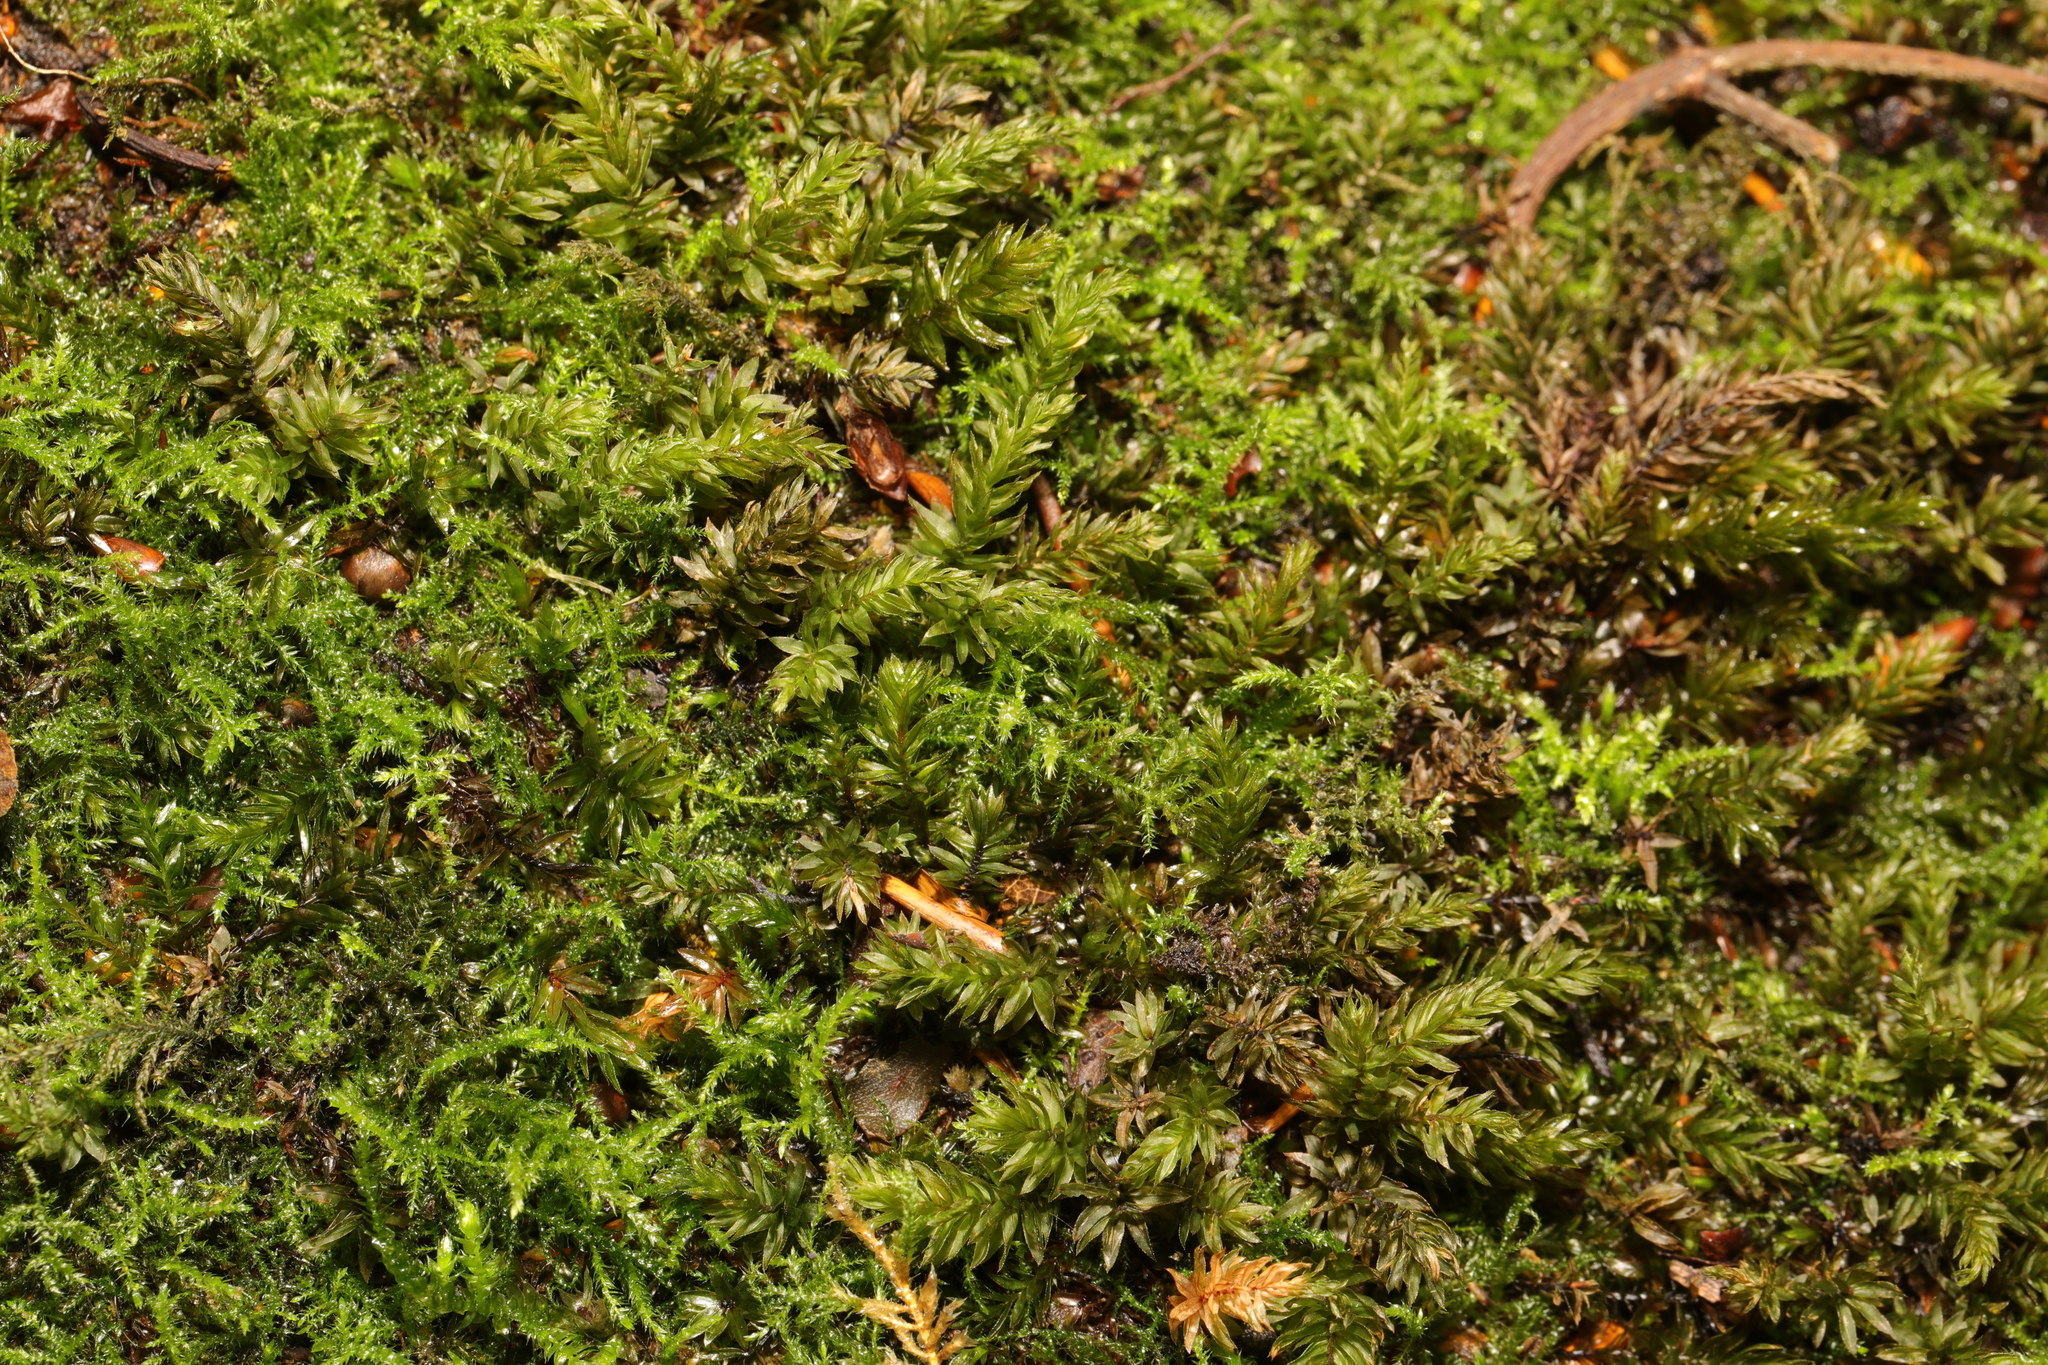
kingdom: Plantae
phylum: Bryophyta
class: Bryopsida
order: Bryales
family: Mniaceae
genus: Mnium
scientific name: Mnium hornum
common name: Swan's-neck leafy moss
